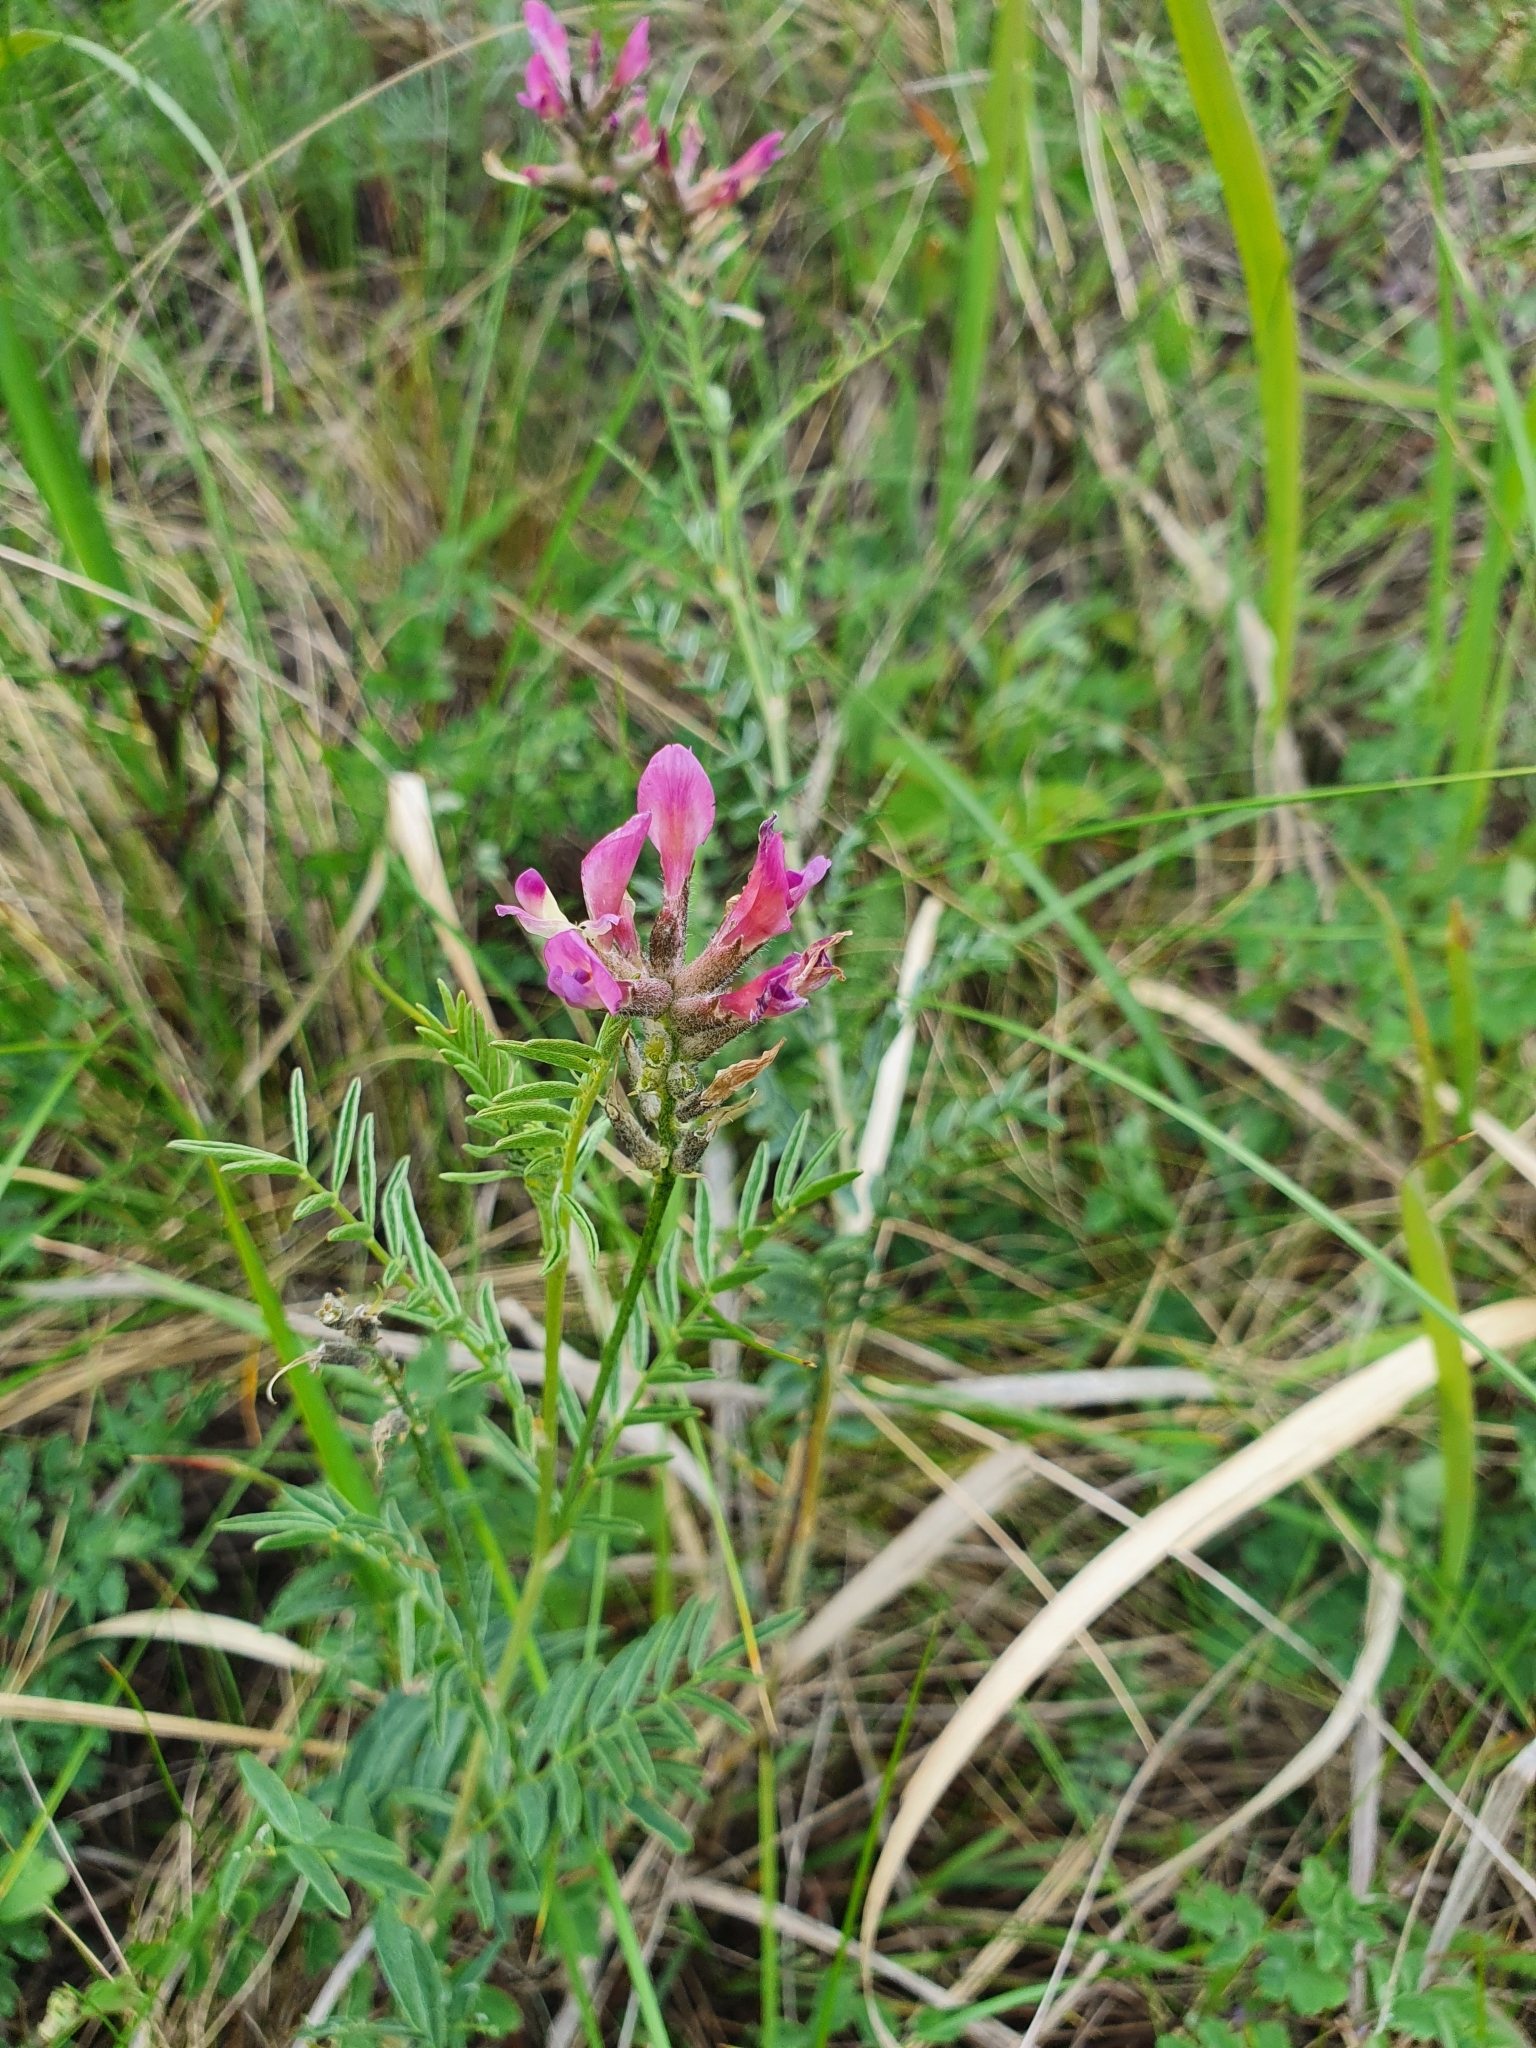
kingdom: Plantae
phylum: Tracheophyta
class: Magnoliopsida
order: Fabales
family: Fabaceae
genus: Astragalus
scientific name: Astragalus cornutus
